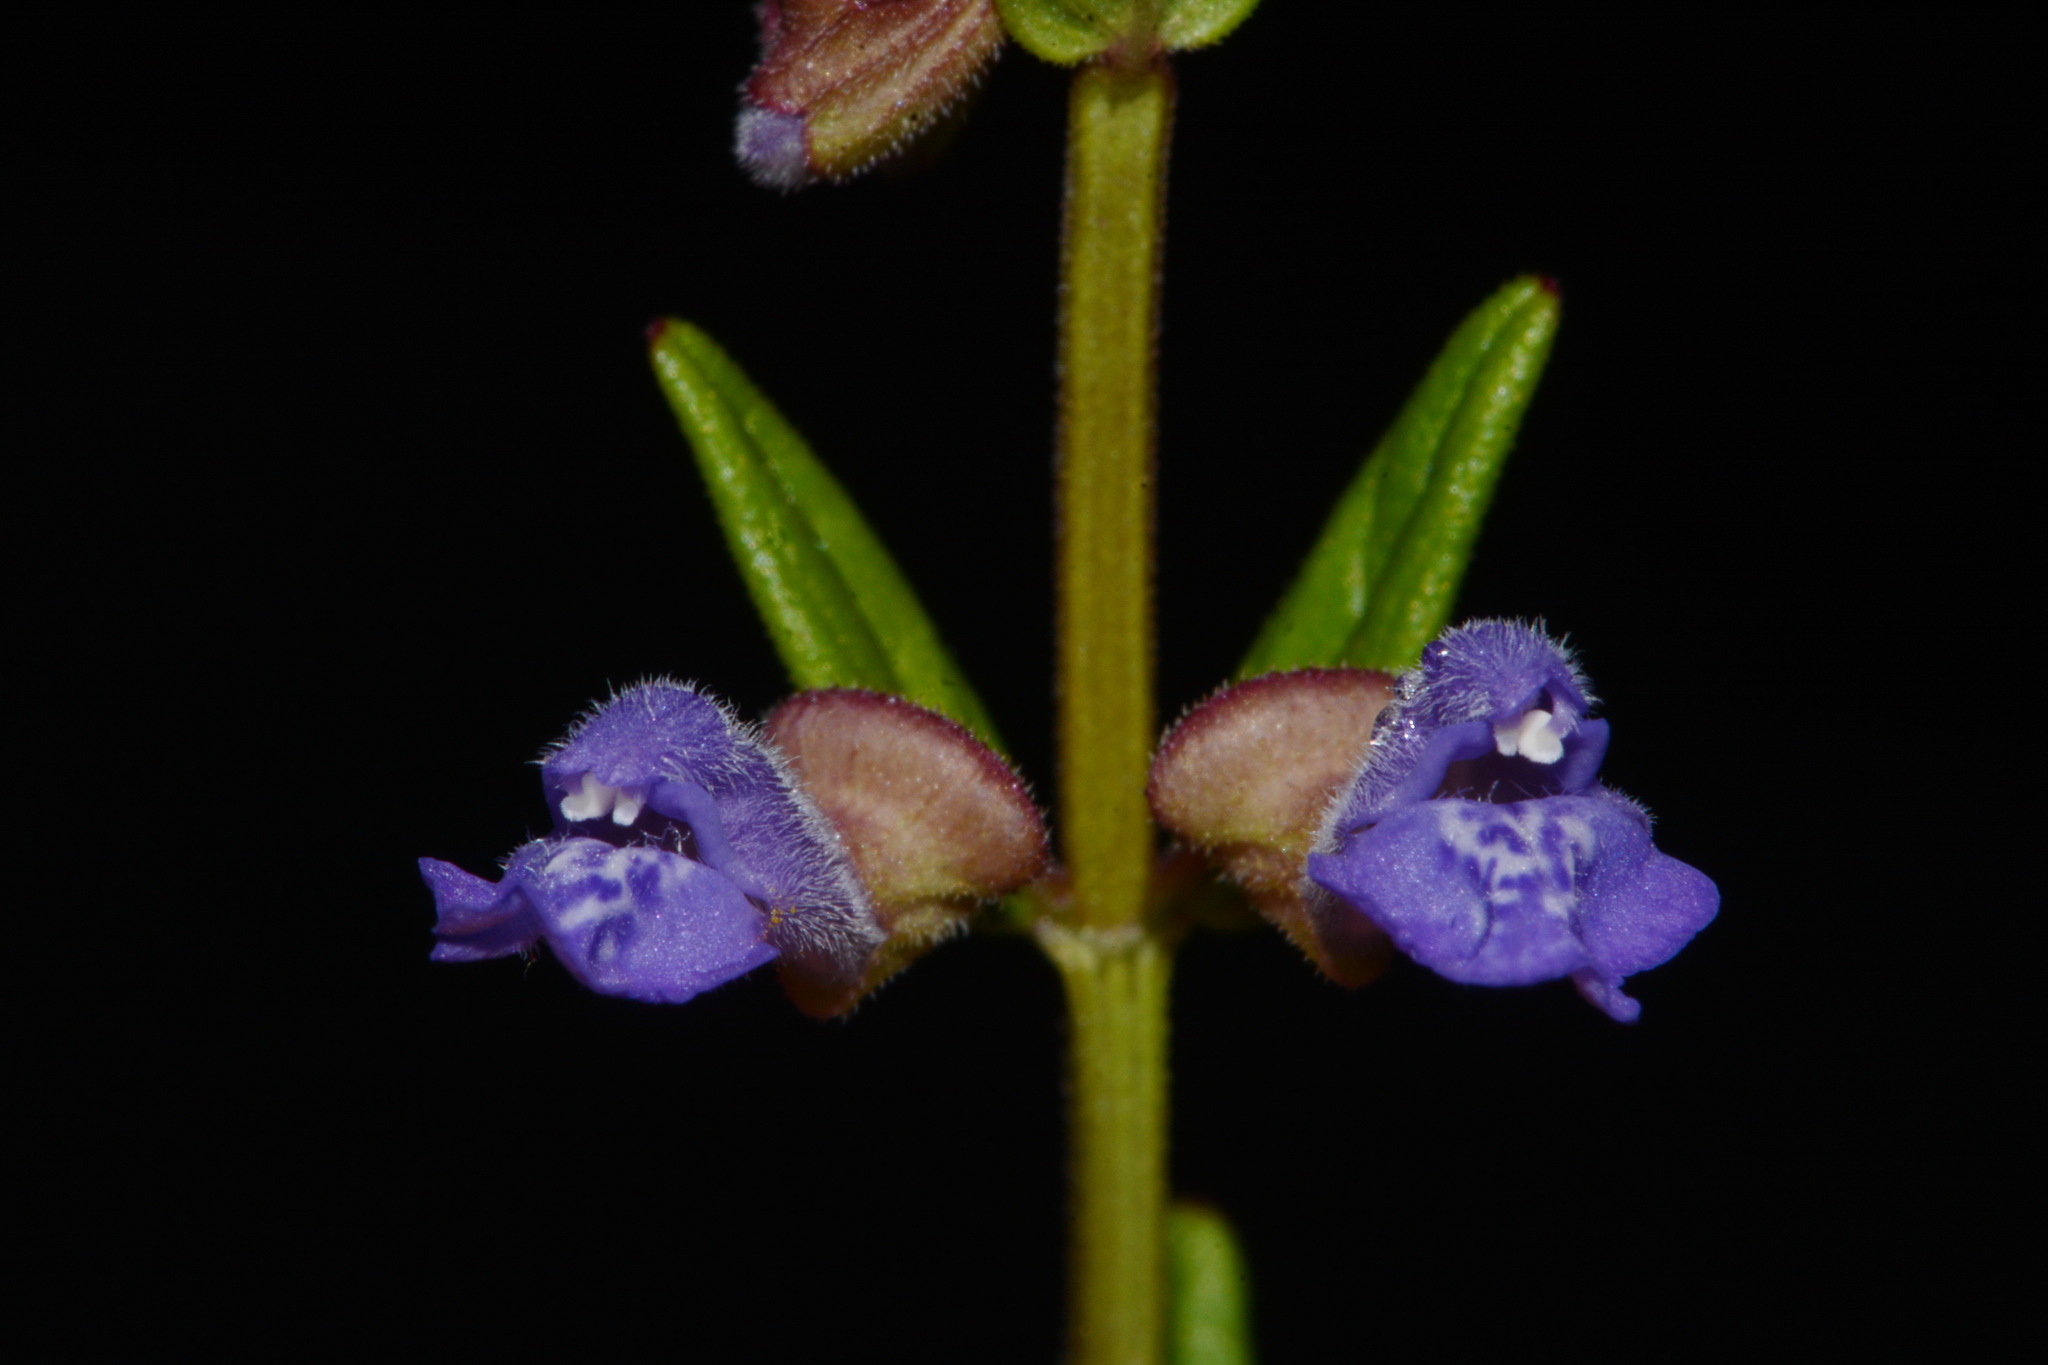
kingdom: Plantae
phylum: Tracheophyta
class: Magnoliopsida
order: Lamiales
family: Lamiaceae
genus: Scutellaria
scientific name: Scutellaria parvula
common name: Little scullcap
